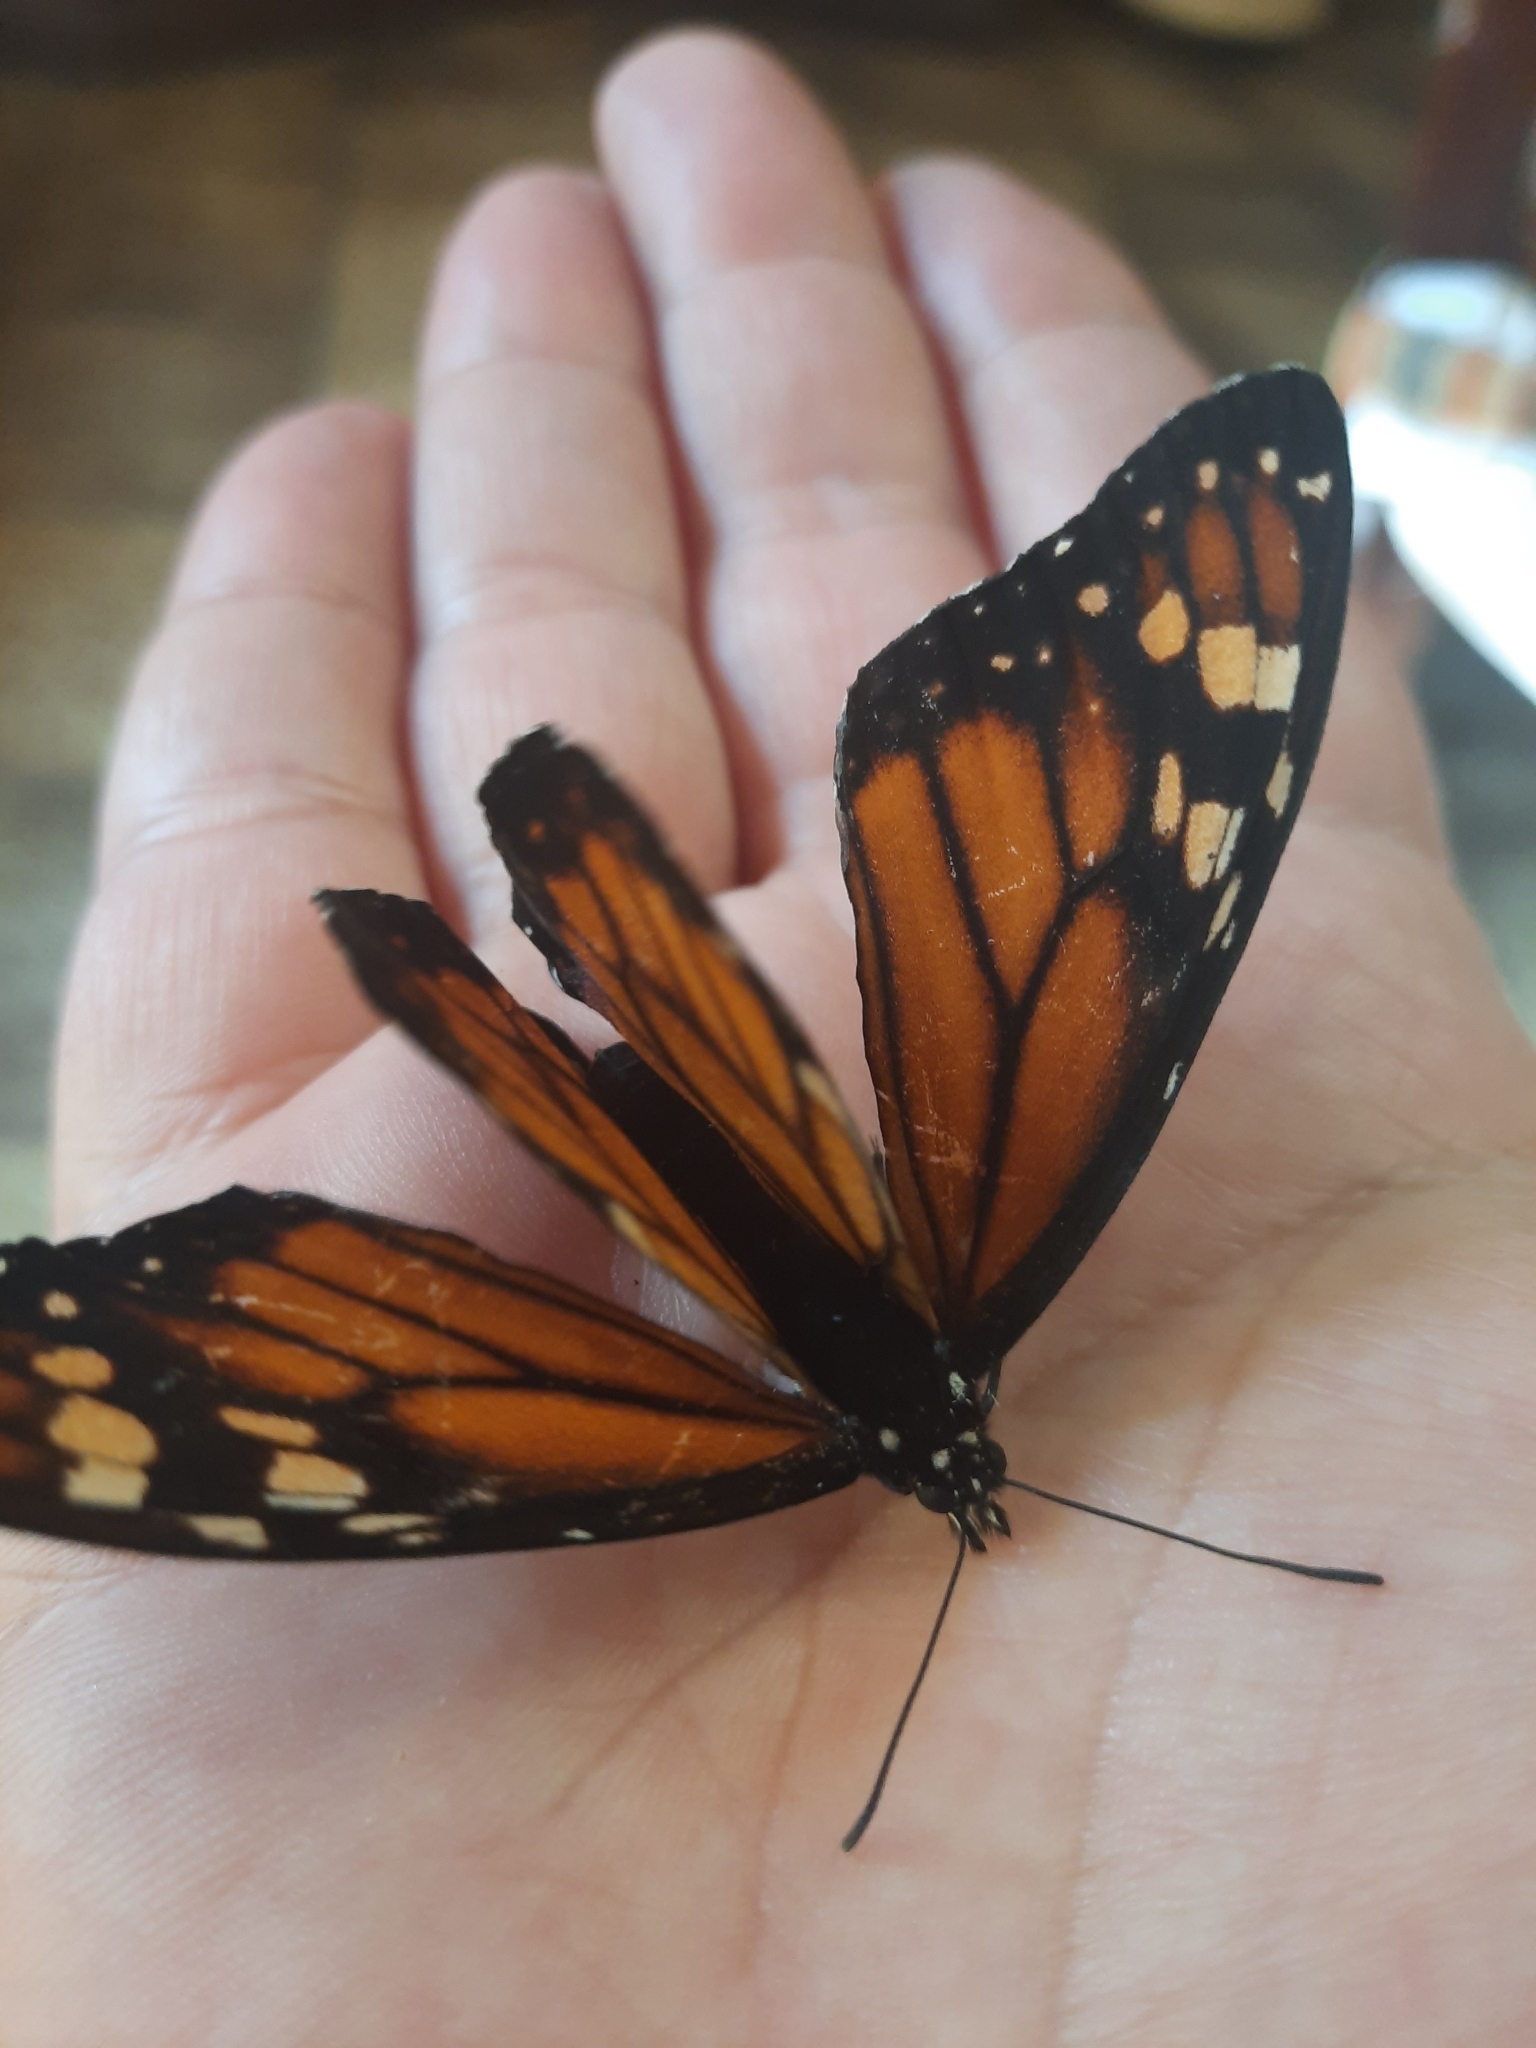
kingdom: Animalia
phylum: Arthropoda
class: Insecta
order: Lepidoptera
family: Nymphalidae
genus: Danaus
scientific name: Danaus erippus
